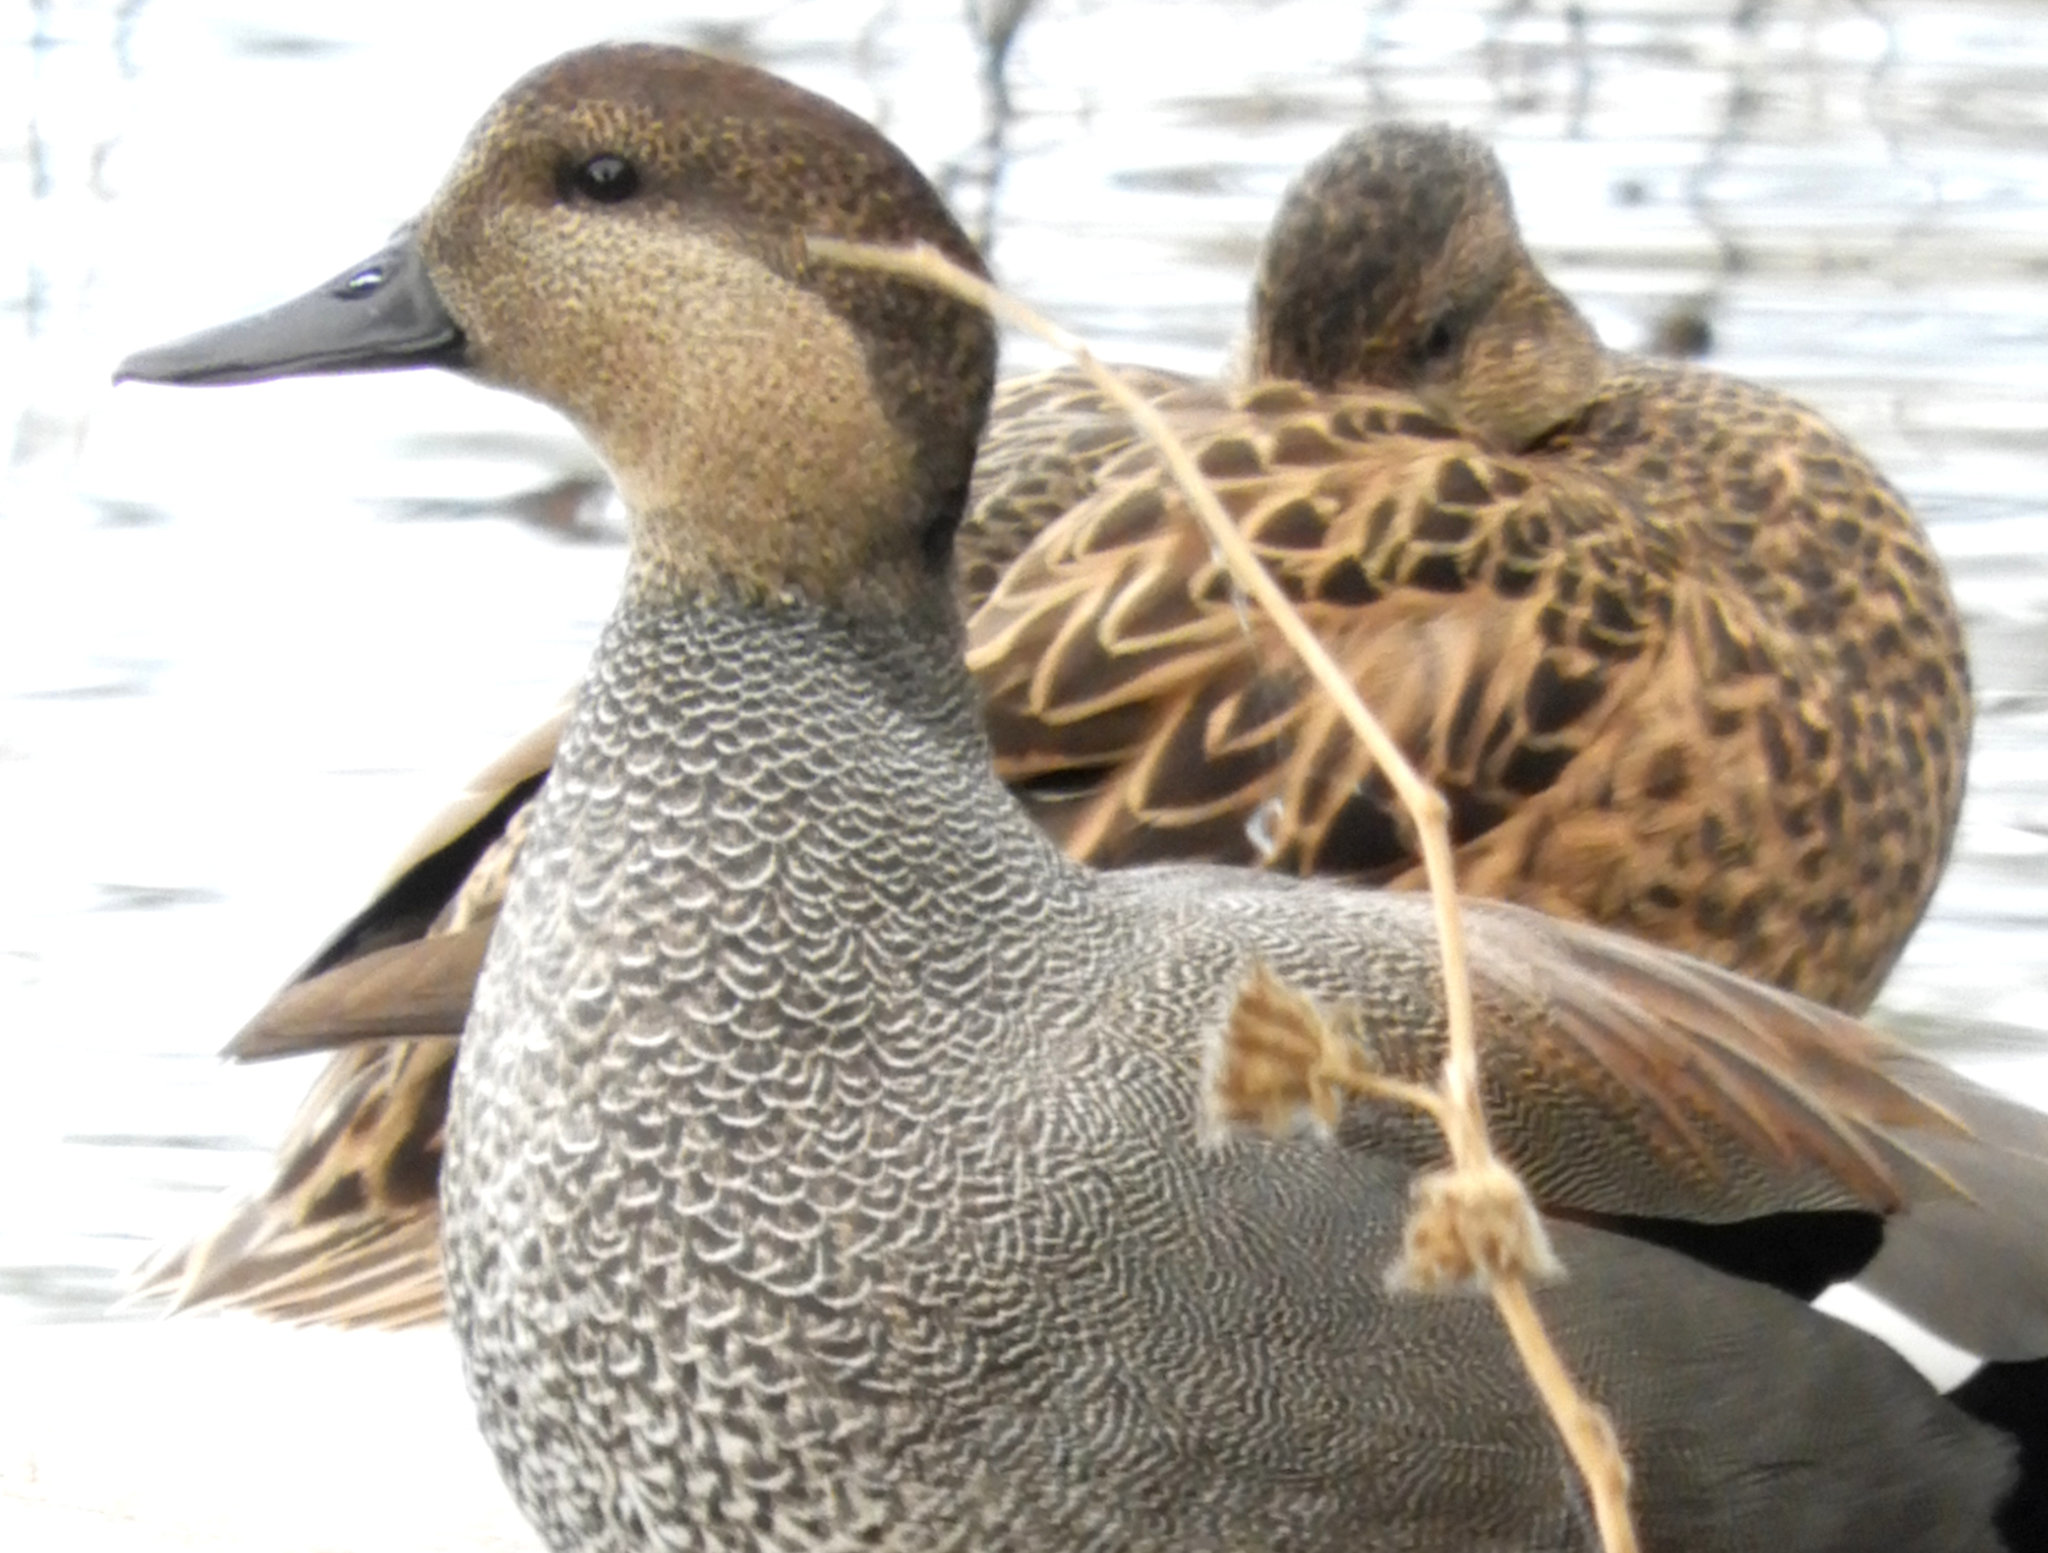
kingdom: Animalia
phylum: Chordata
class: Aves
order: Anseriformes
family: Anatidae
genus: Mareca
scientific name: Mareca strepera
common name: Gadwall
